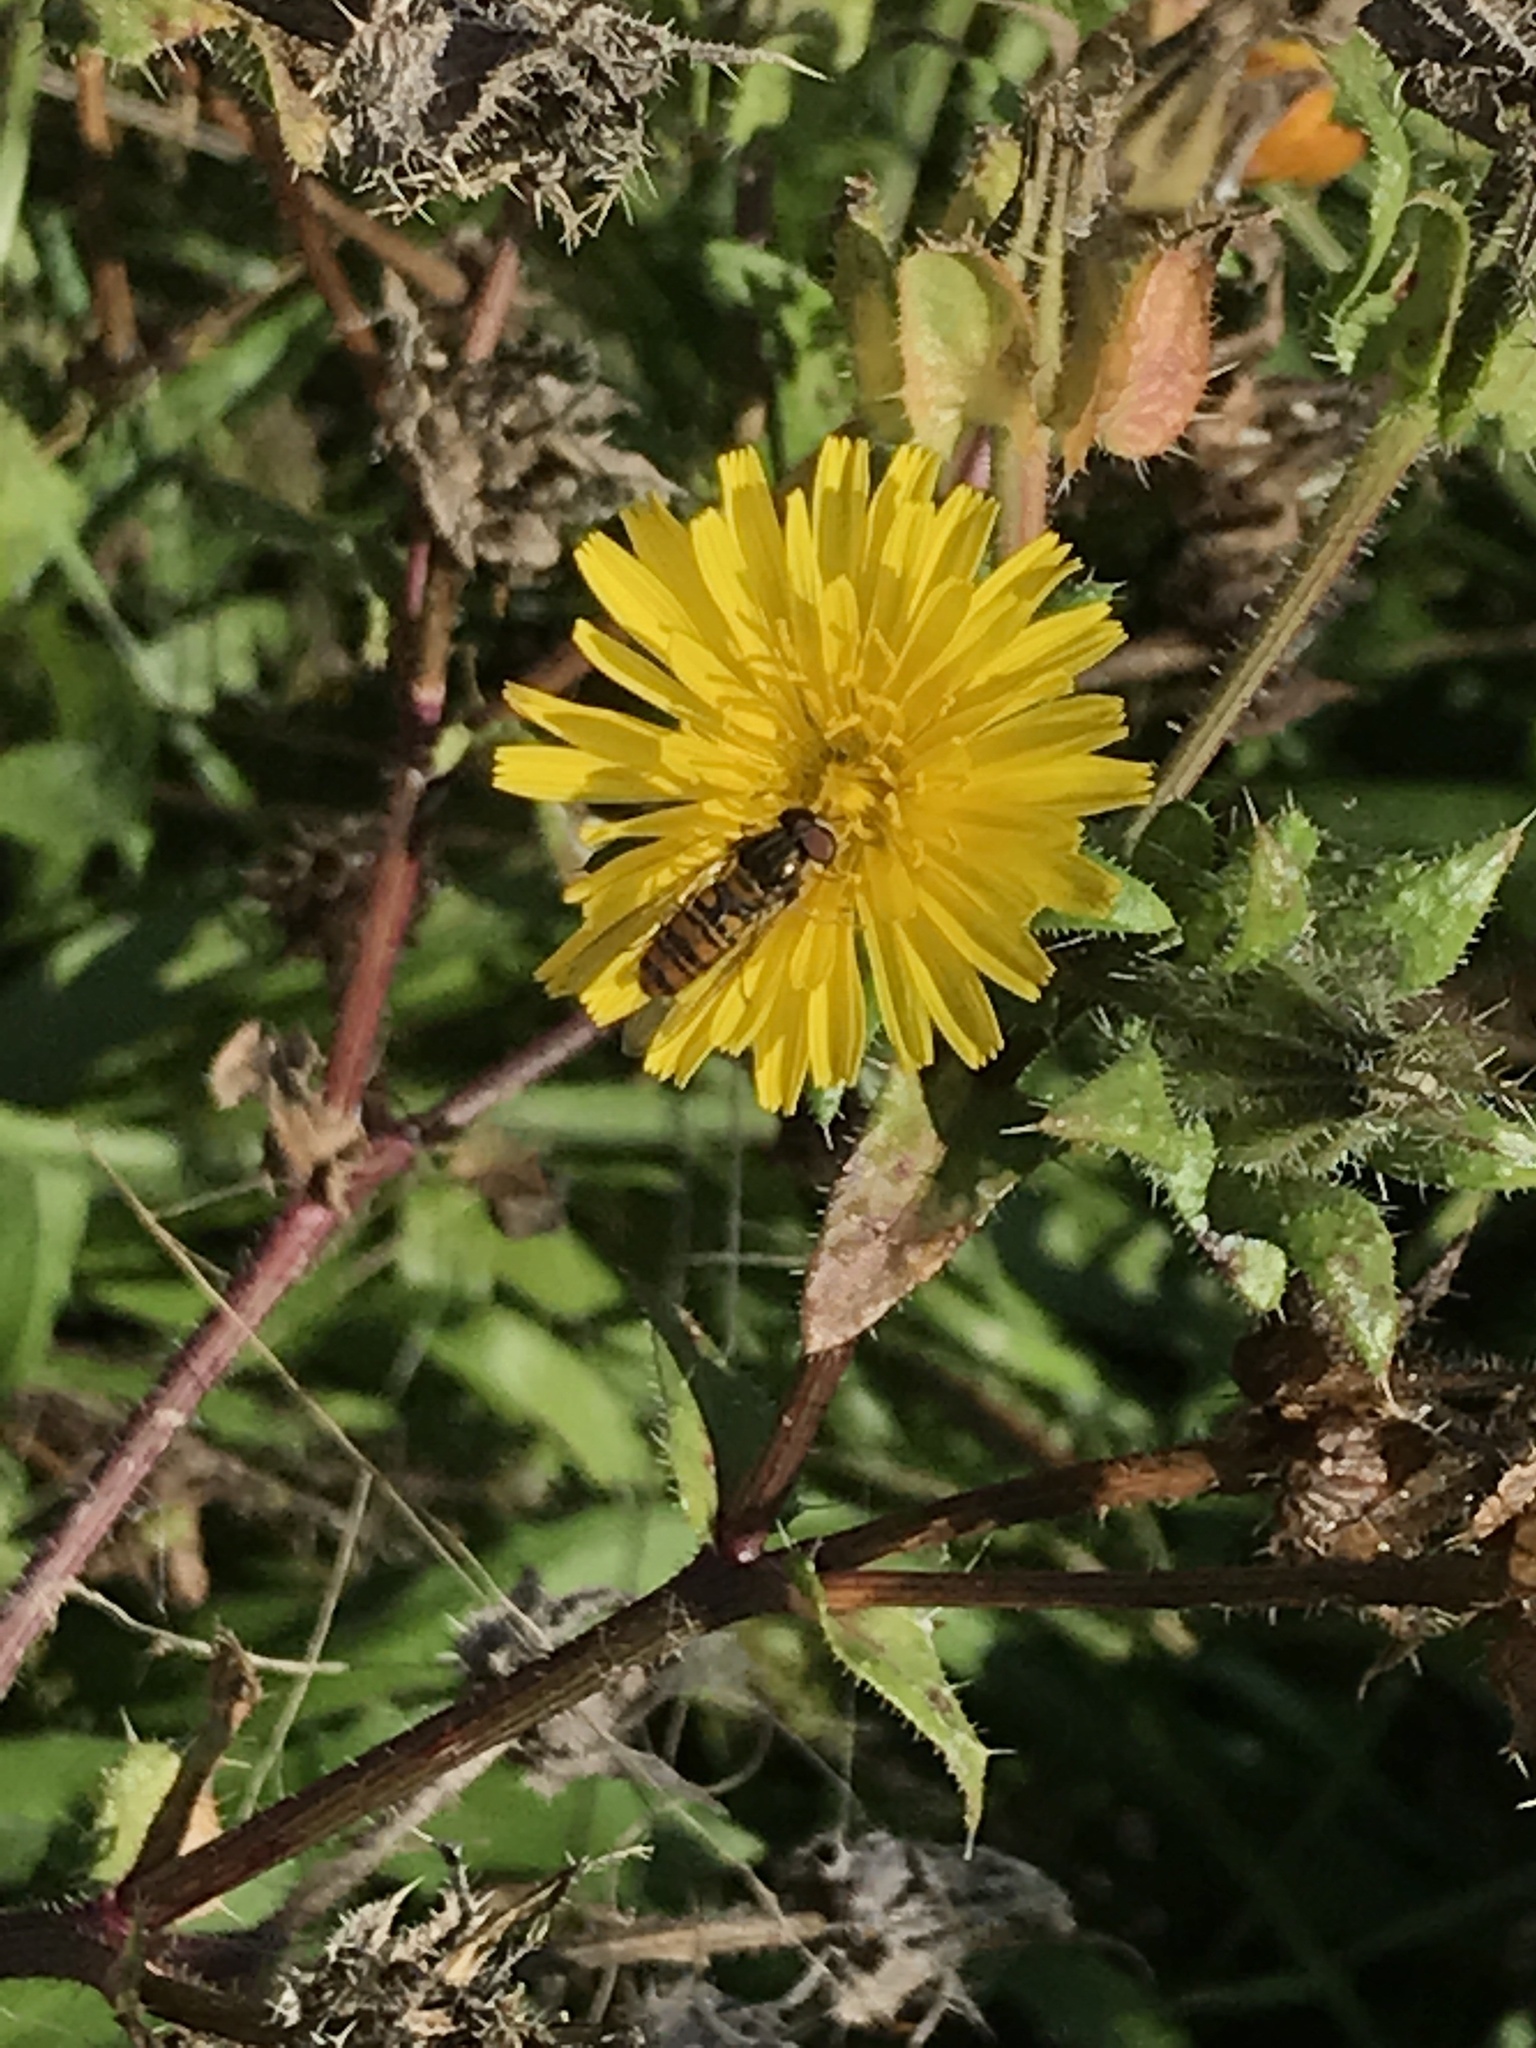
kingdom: Animalia
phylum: Arthropoda
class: Insecta
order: Diptera
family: Syrphidae
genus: Episyrphus
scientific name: Episyrphus balteatus
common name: Marmalade hoverfly
